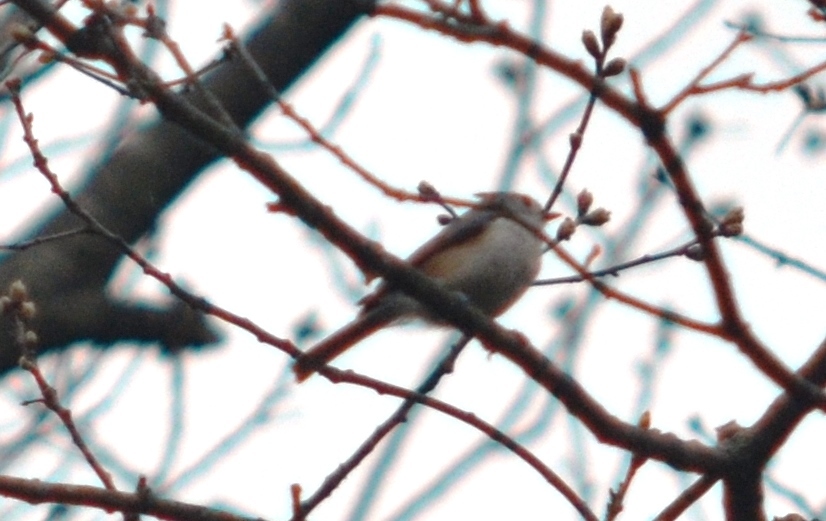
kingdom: Animalia
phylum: Chordata
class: Aves
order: Passeriformes
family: Paridae
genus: Baeolophus
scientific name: Baeolophus bicolor
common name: Tufted titmouse
